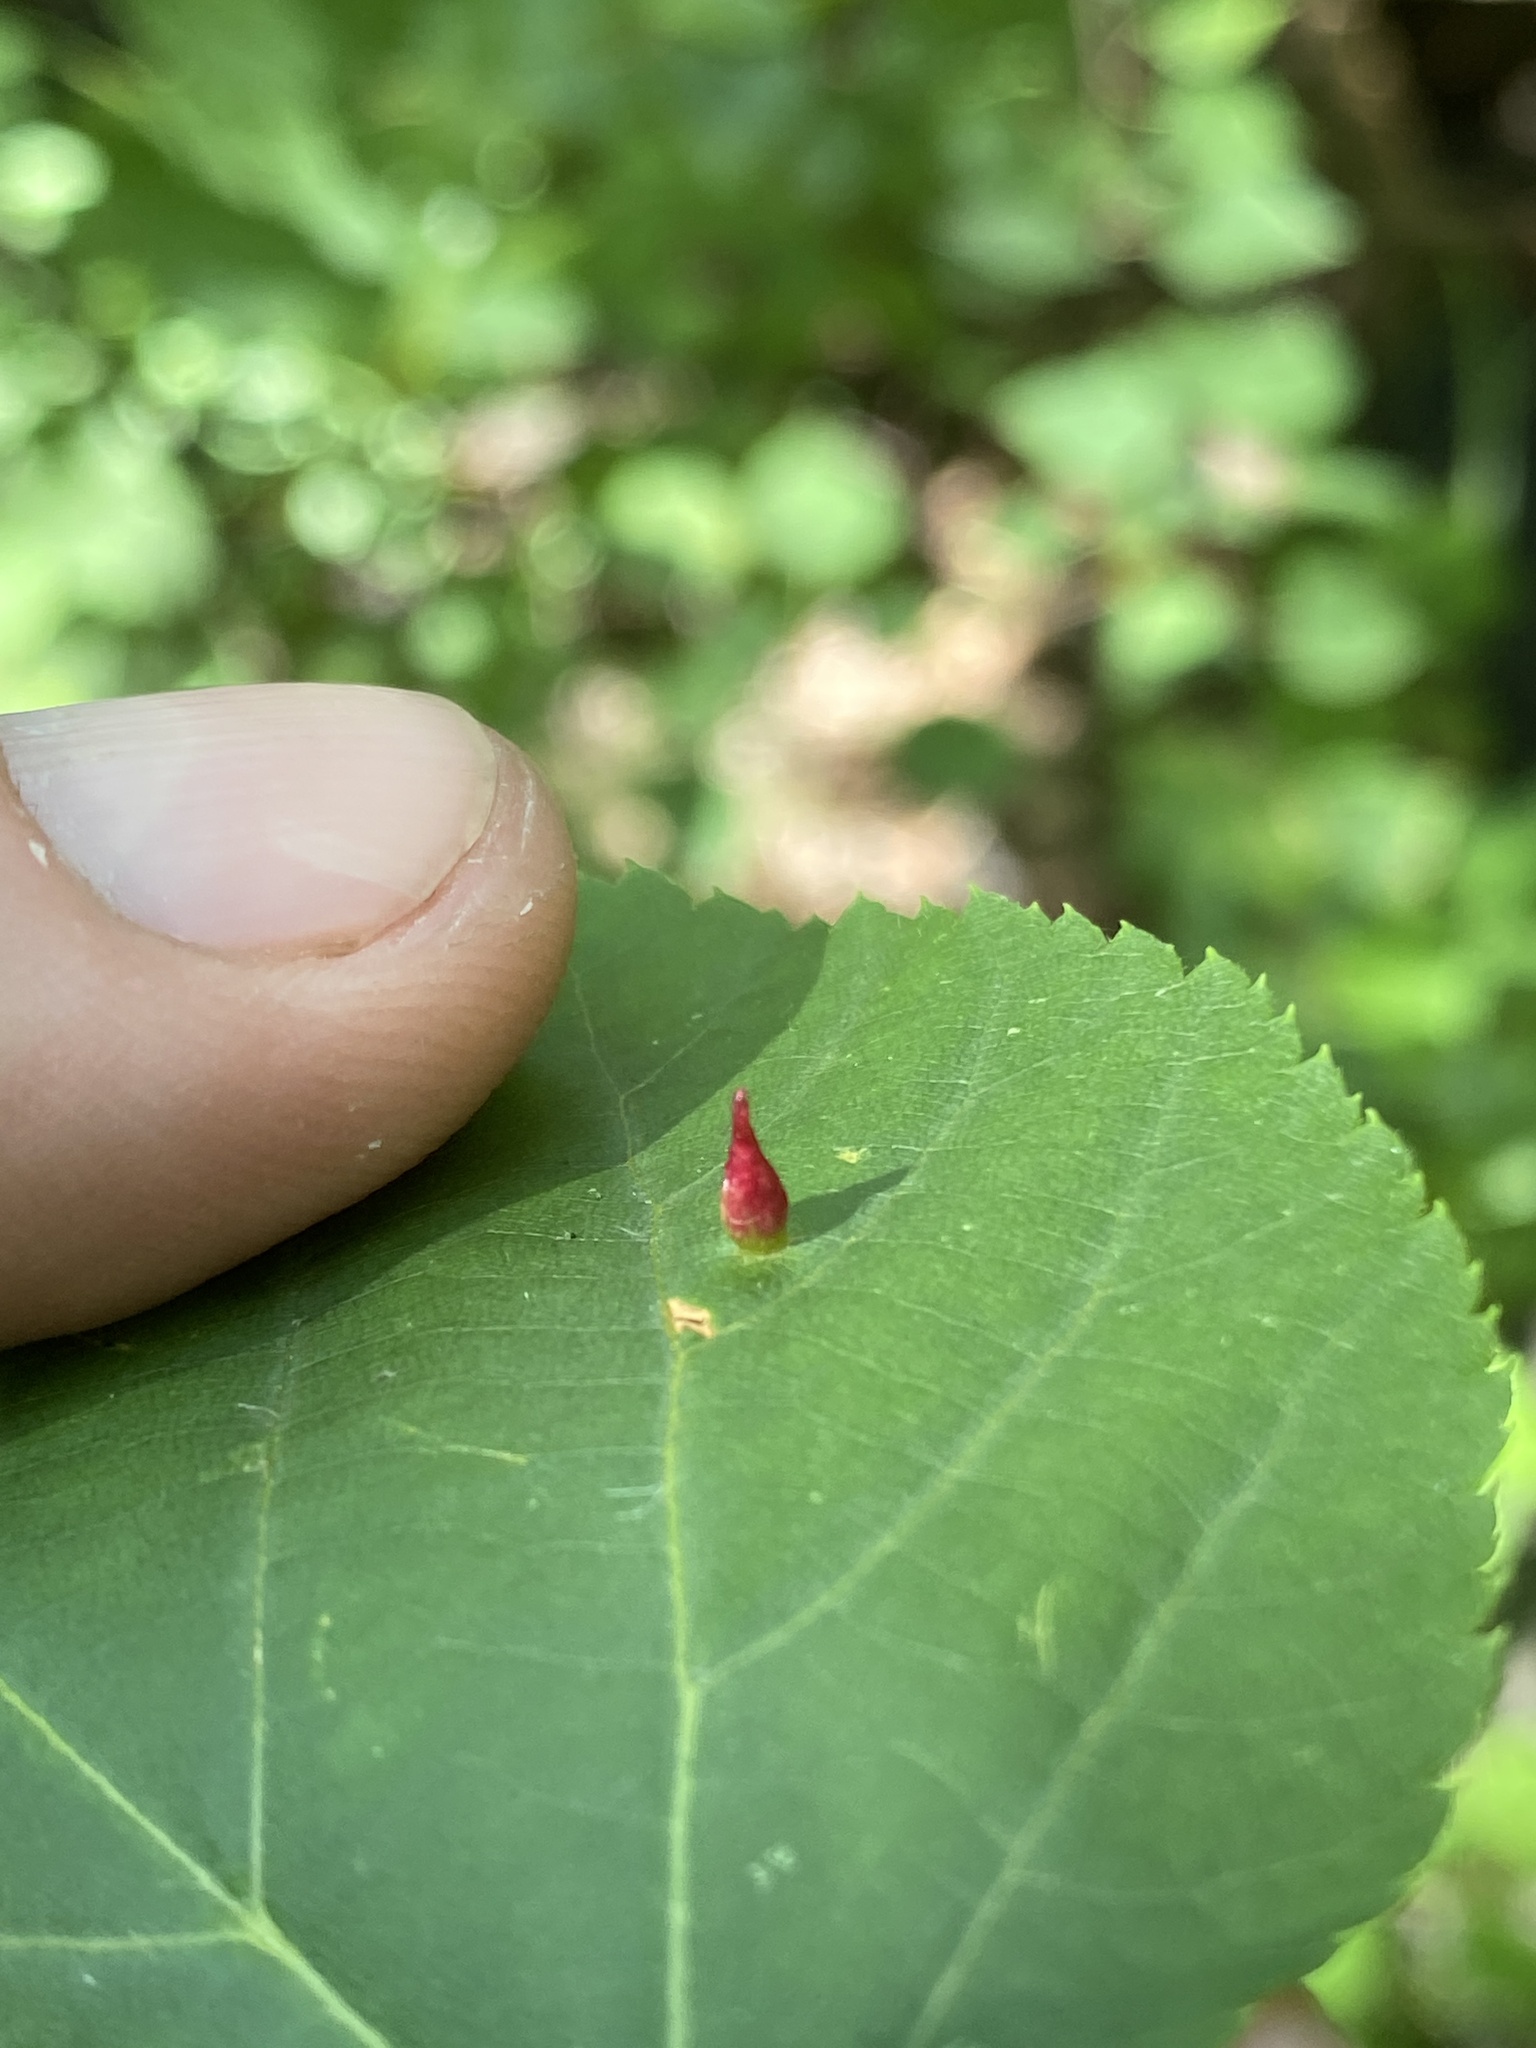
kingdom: Animalia
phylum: Arthropoda
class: Arachnida
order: Trombidiformes
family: Eriophyidae
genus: Eriophyes
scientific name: Eriophyes tiliae
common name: Red nail gall mite
